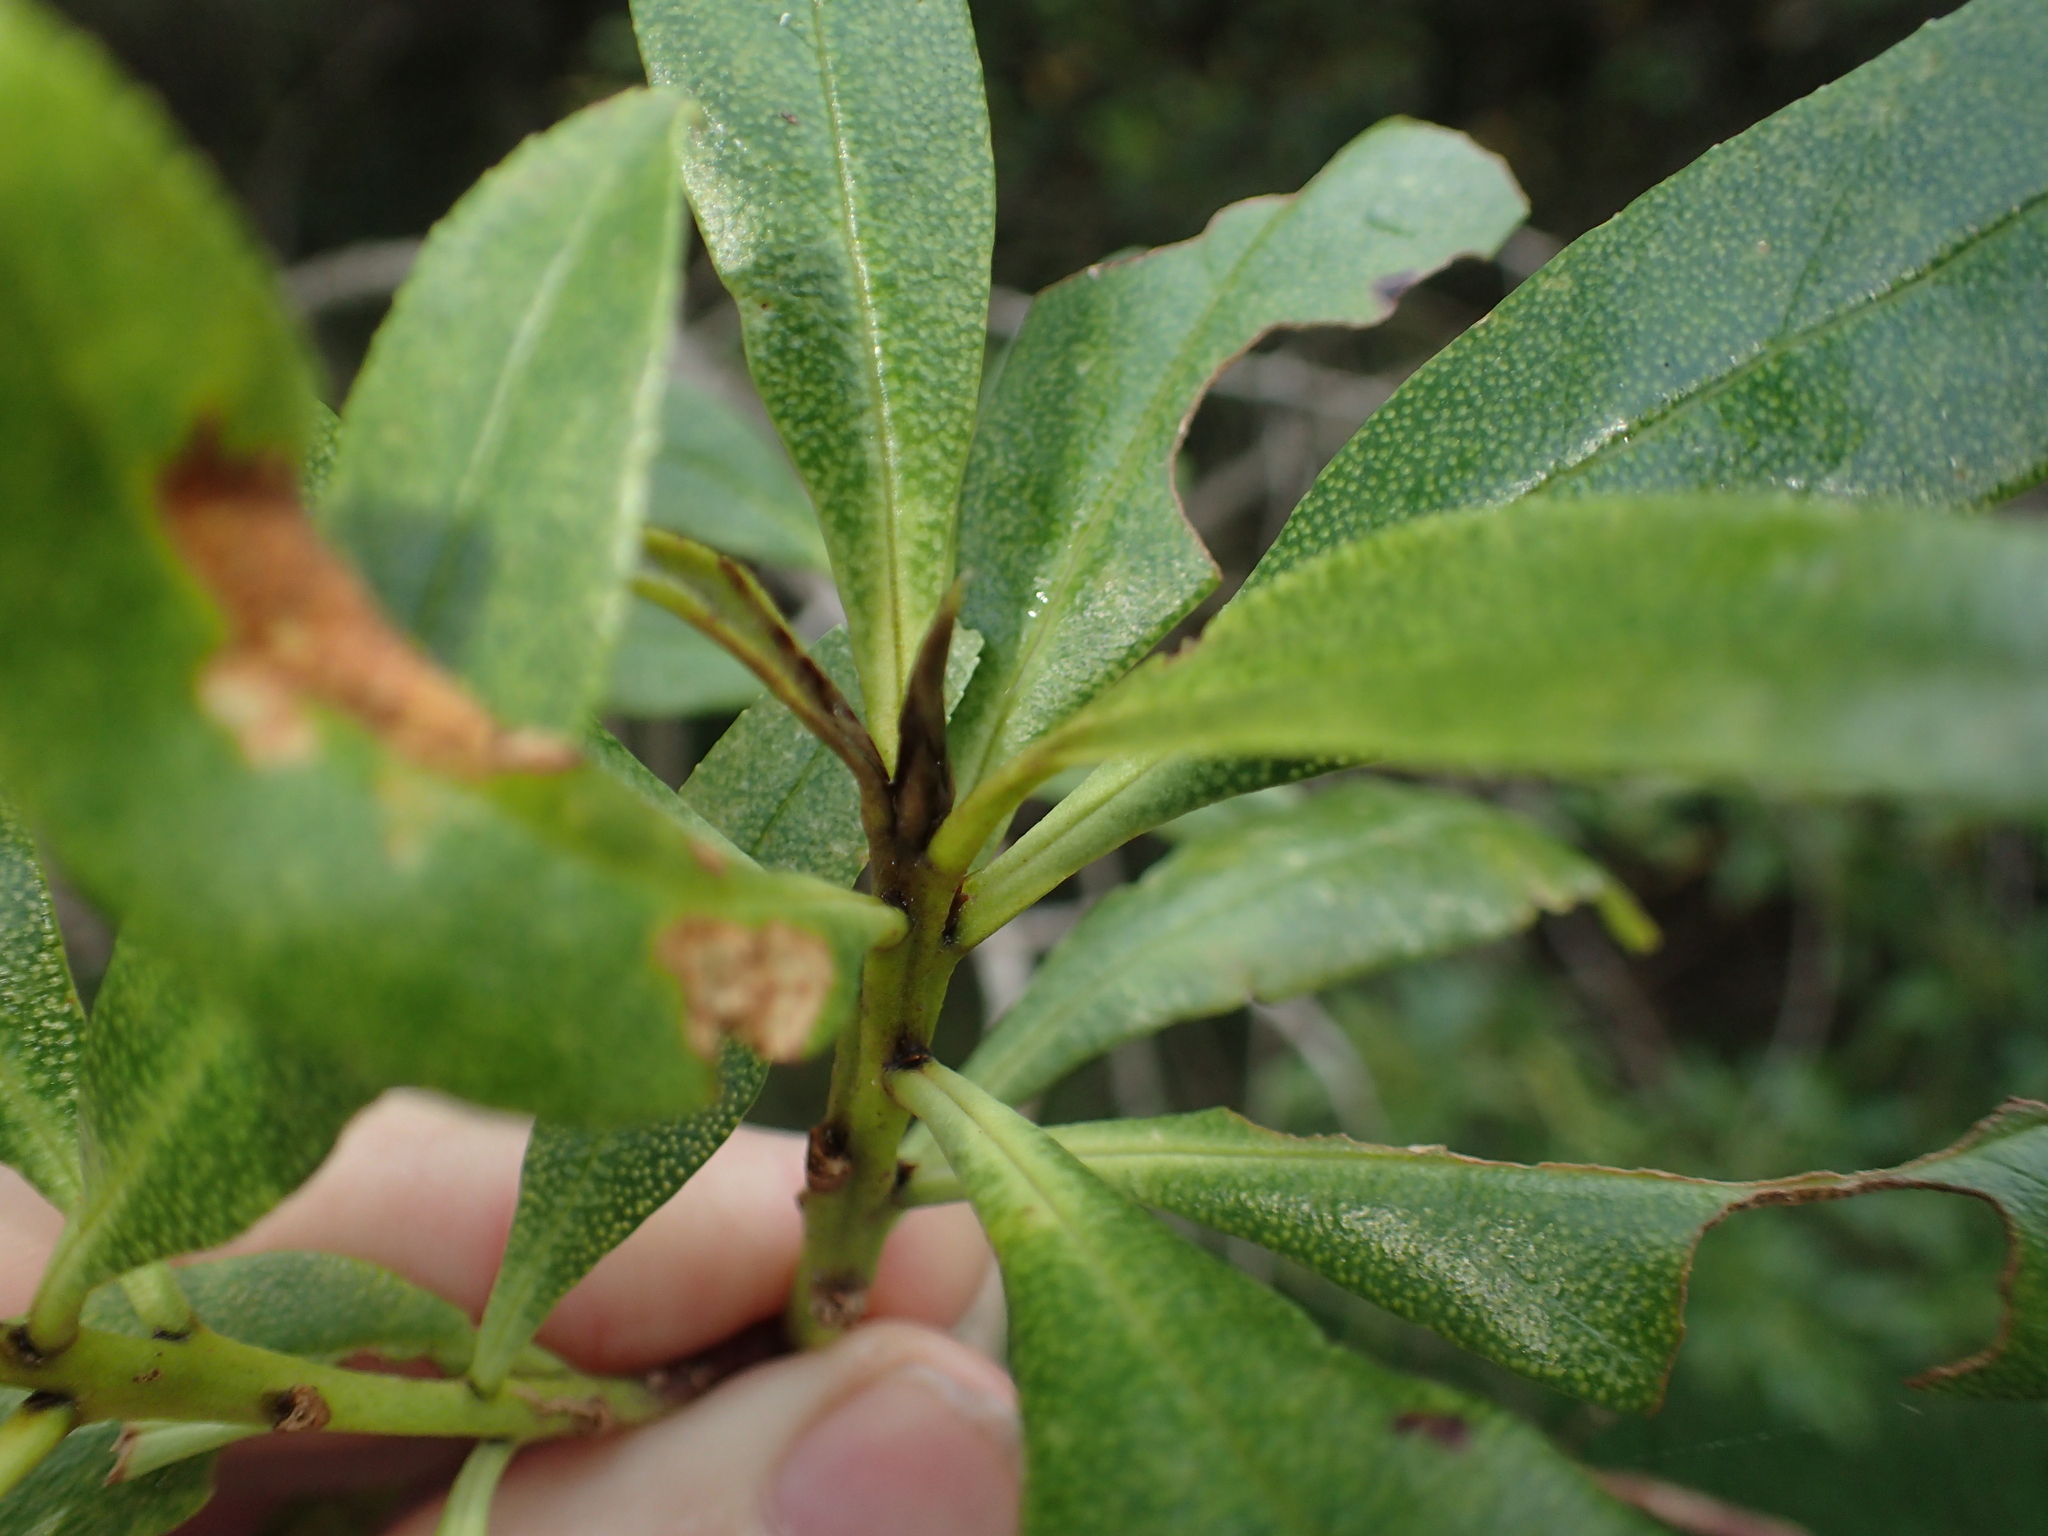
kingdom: Plantae
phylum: Tracheophyta
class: Magnoliopsida
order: Lamiales
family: Scrophulariaceae
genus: Myoporum
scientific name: Myoporum laetum
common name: Ngaio tree
